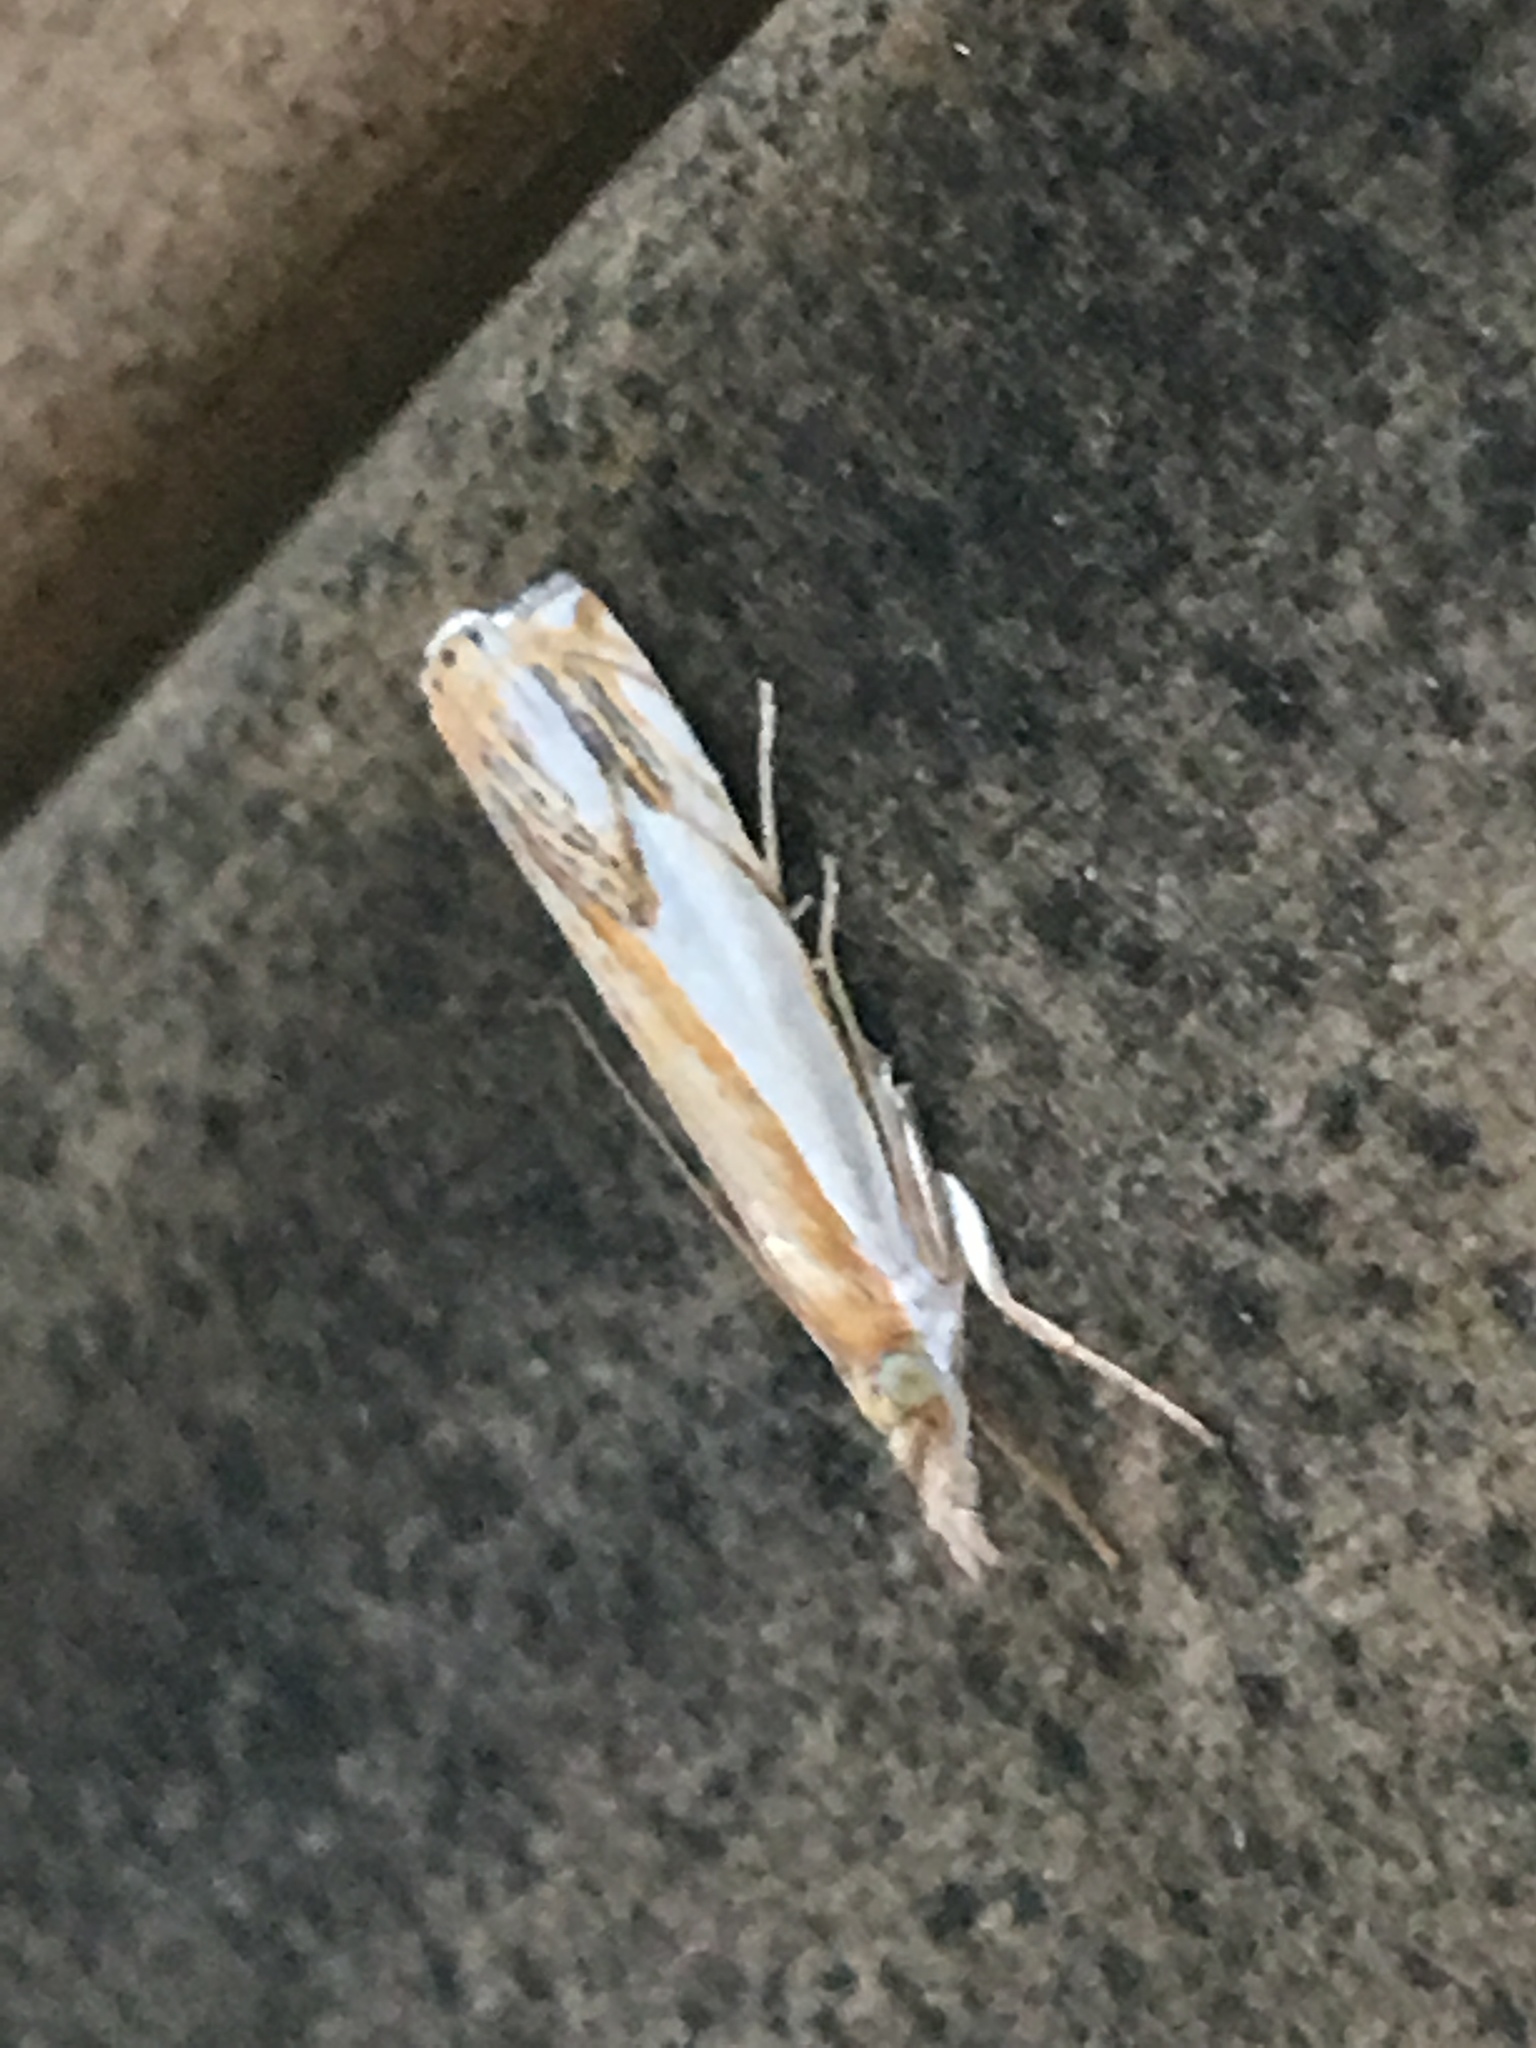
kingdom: Animalia
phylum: Arthropoda
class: Insecta
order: Lepidoptera
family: Crambidae
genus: Crambus
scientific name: Crambus agitatellus
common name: Double-banded grass-veneer
